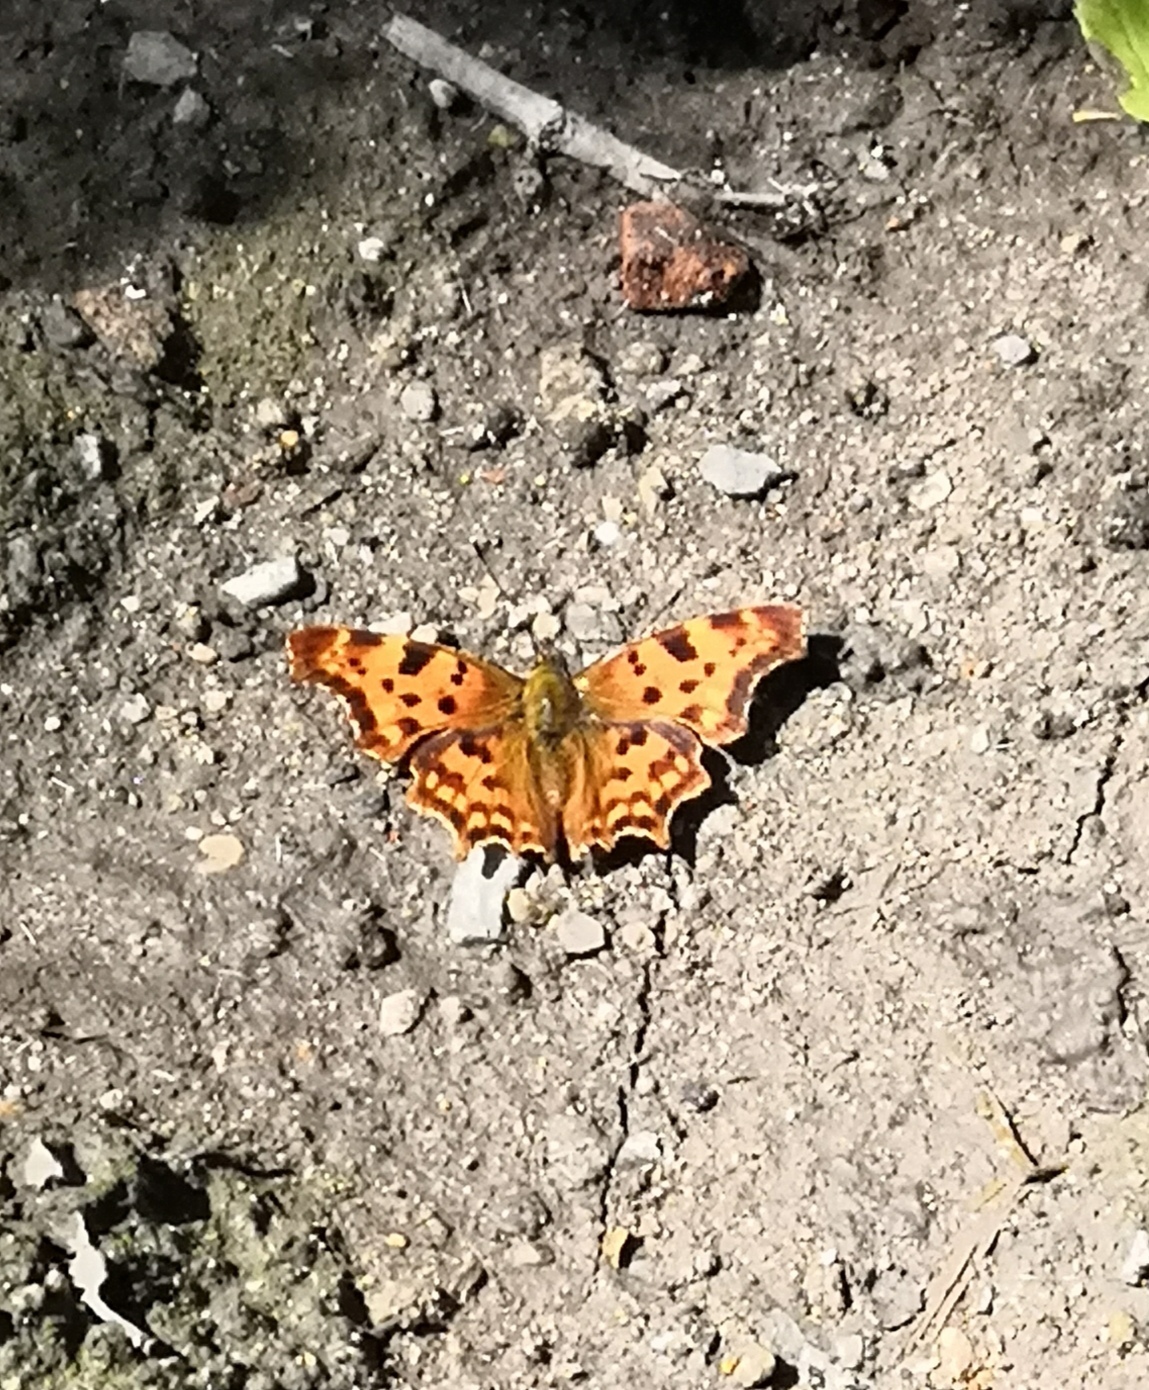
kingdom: Animalia
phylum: Arthropoda
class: Insecta
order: Lepidoptera
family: Nymphalidae
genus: Polygonia
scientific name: Polygonia c-album
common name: Comma
